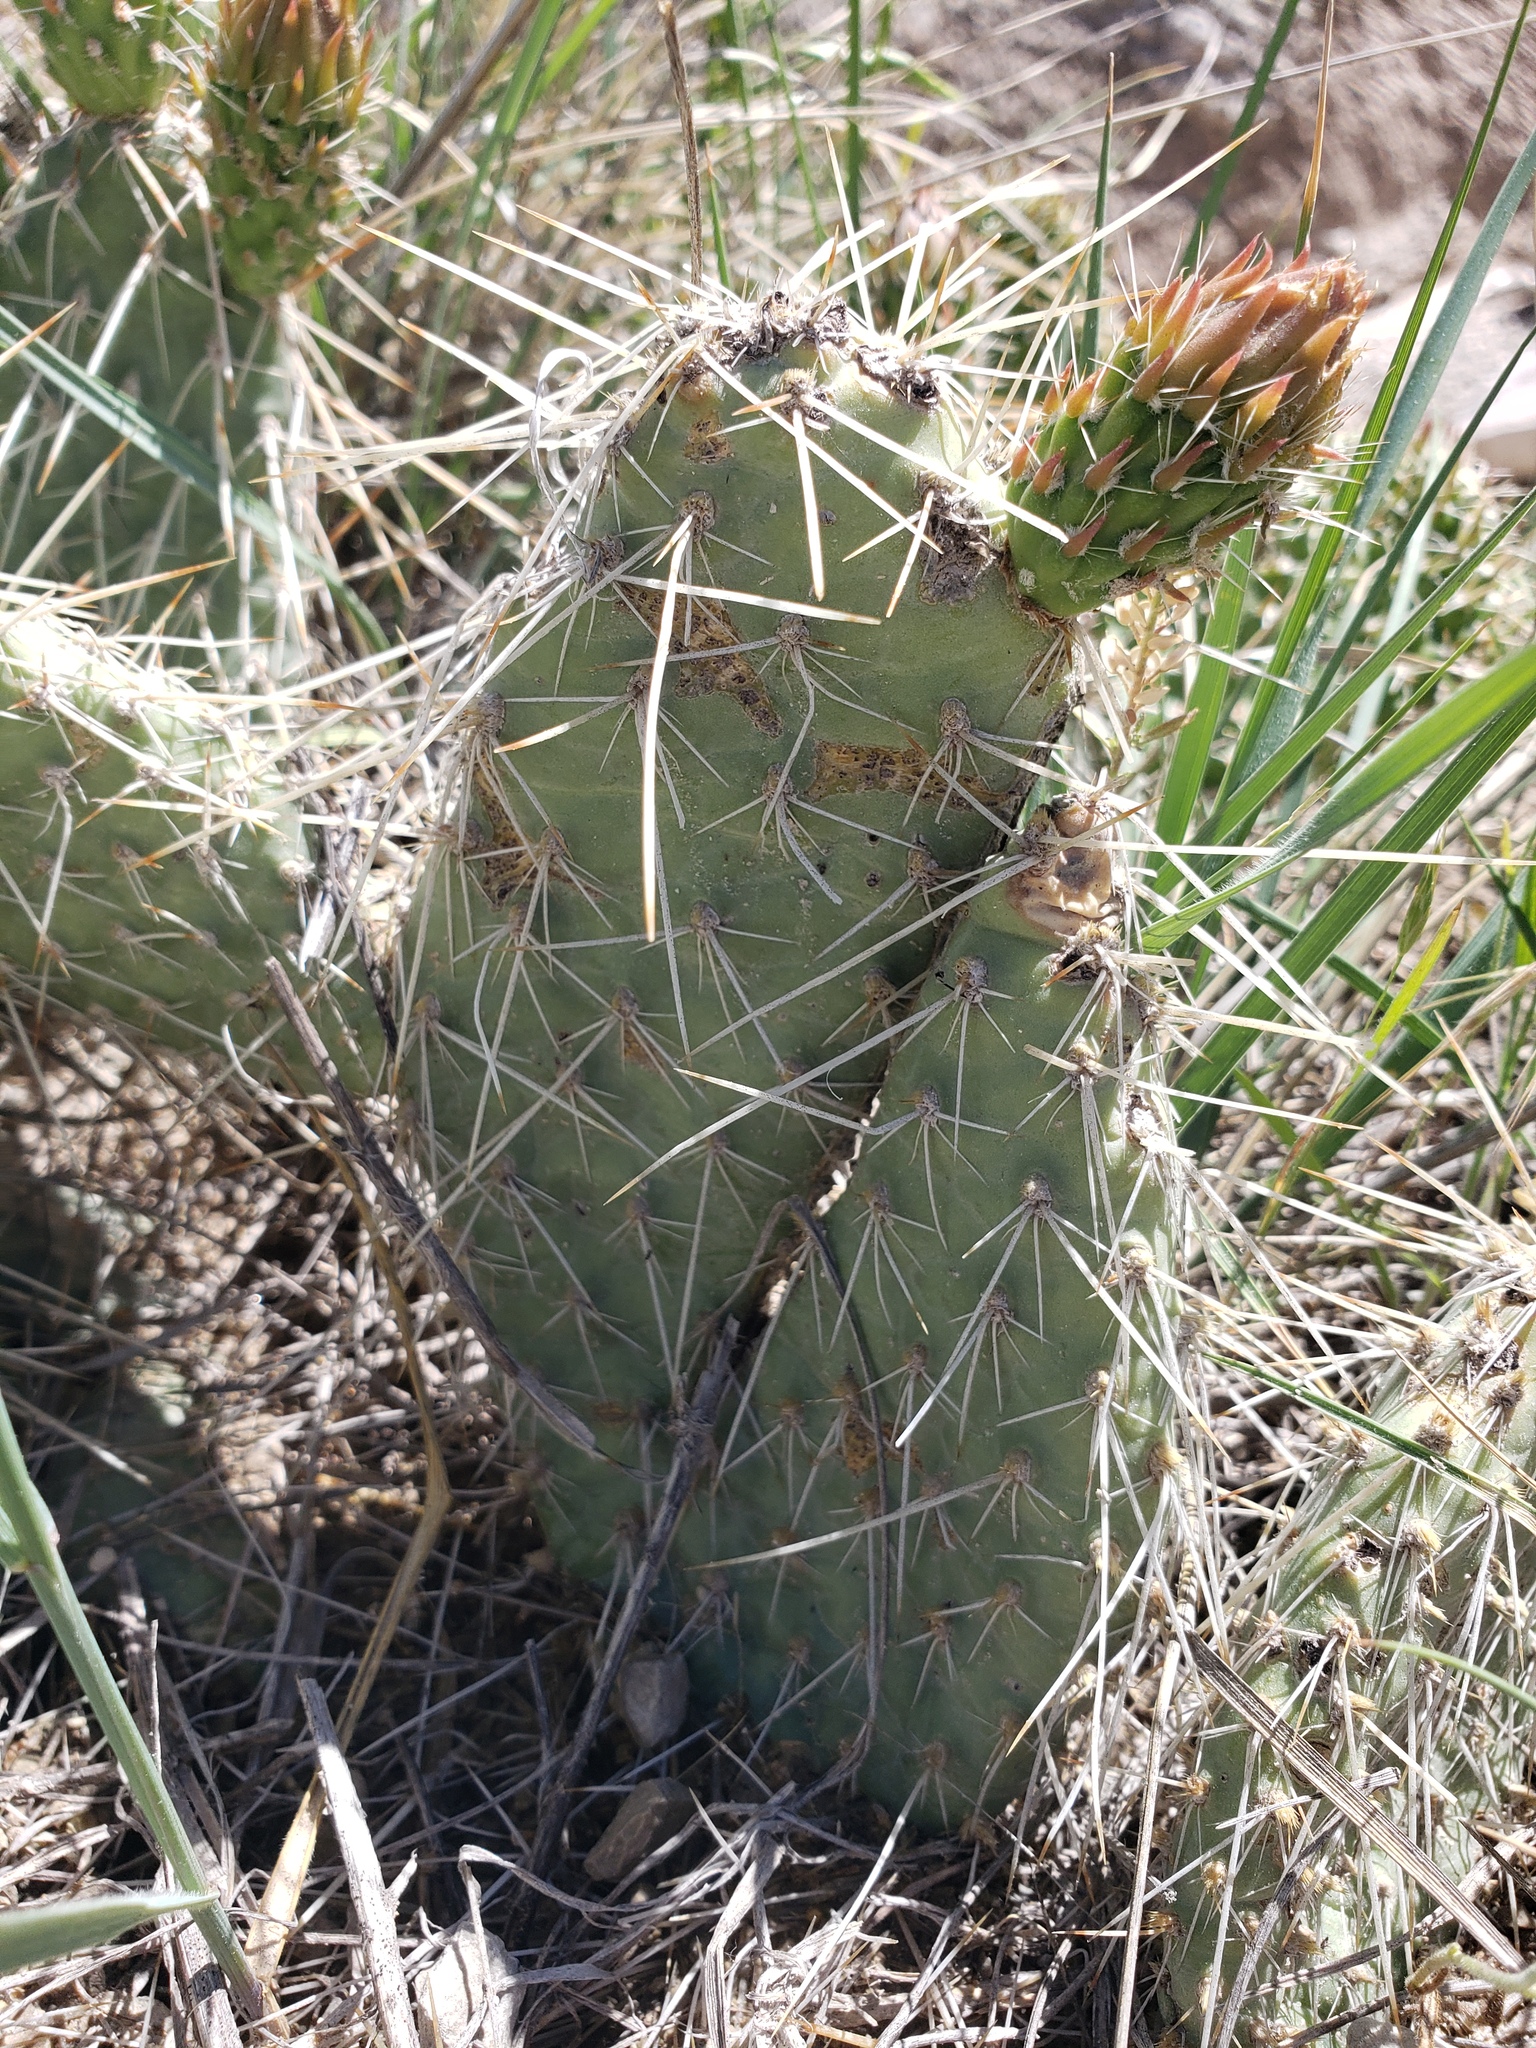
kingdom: Plantae
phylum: Tracheophyta
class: Magnoliopsida
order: Caryophyllales
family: Cactaceae
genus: Opuntia
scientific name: Opuntia polyacantha
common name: Plains prickly-pear
